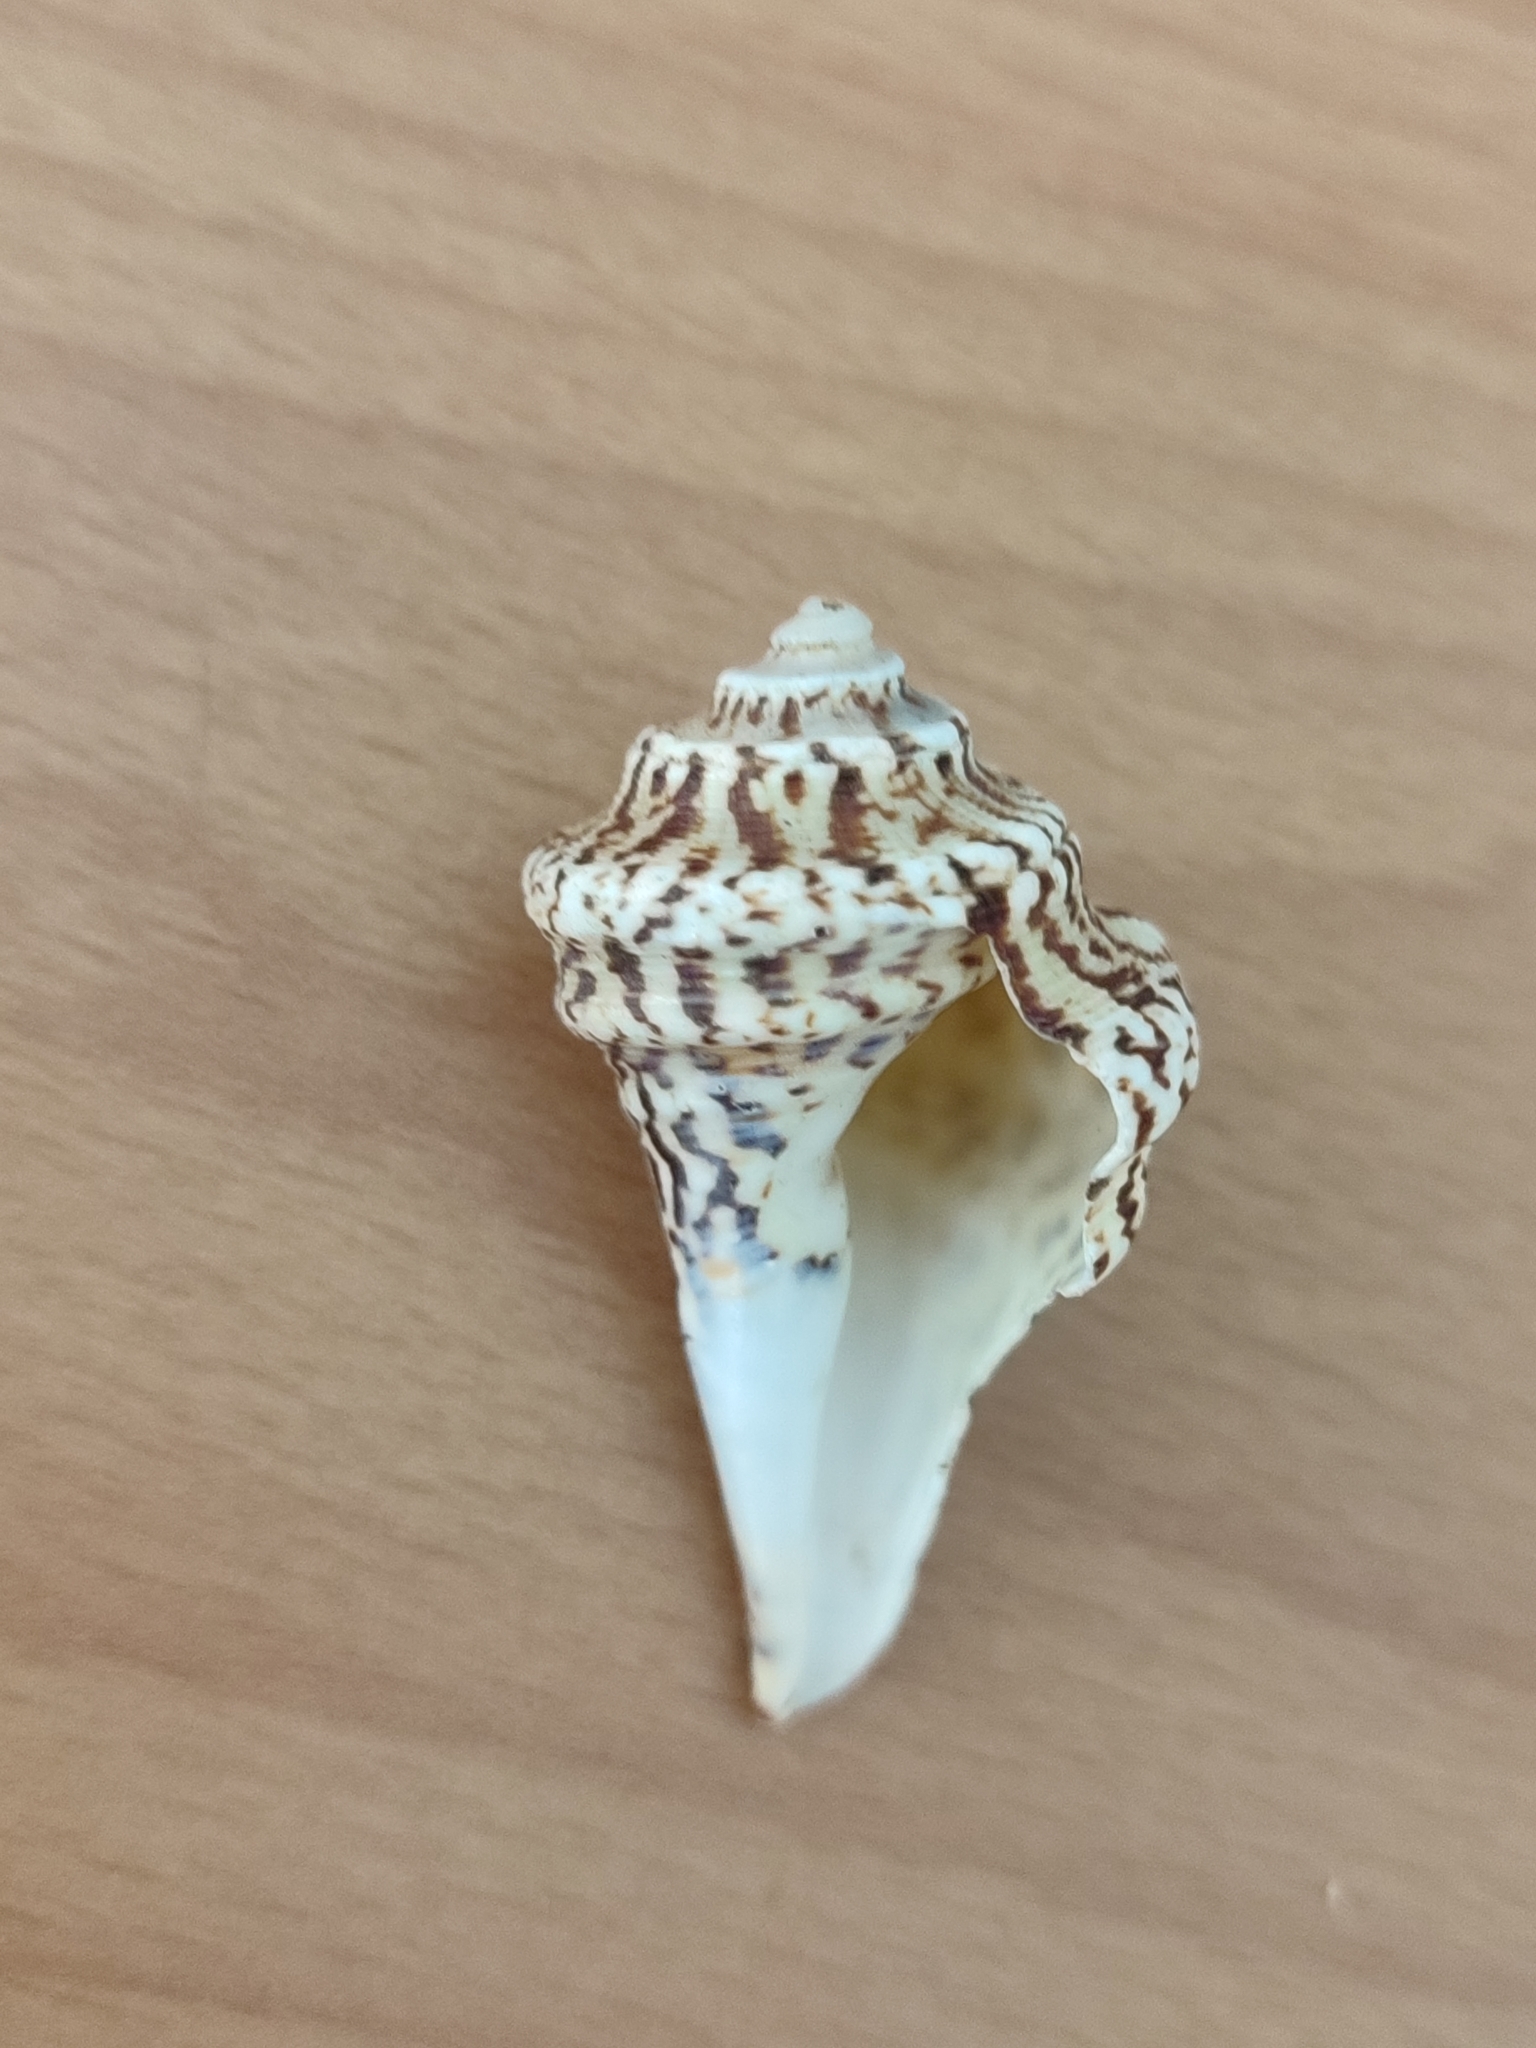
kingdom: Animalia
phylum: Mollusca
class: Gastropoda
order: Littorinimorpha
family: Strombidae
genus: Harpago
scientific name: Harpago chiragra
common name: Chiragra spider conch
